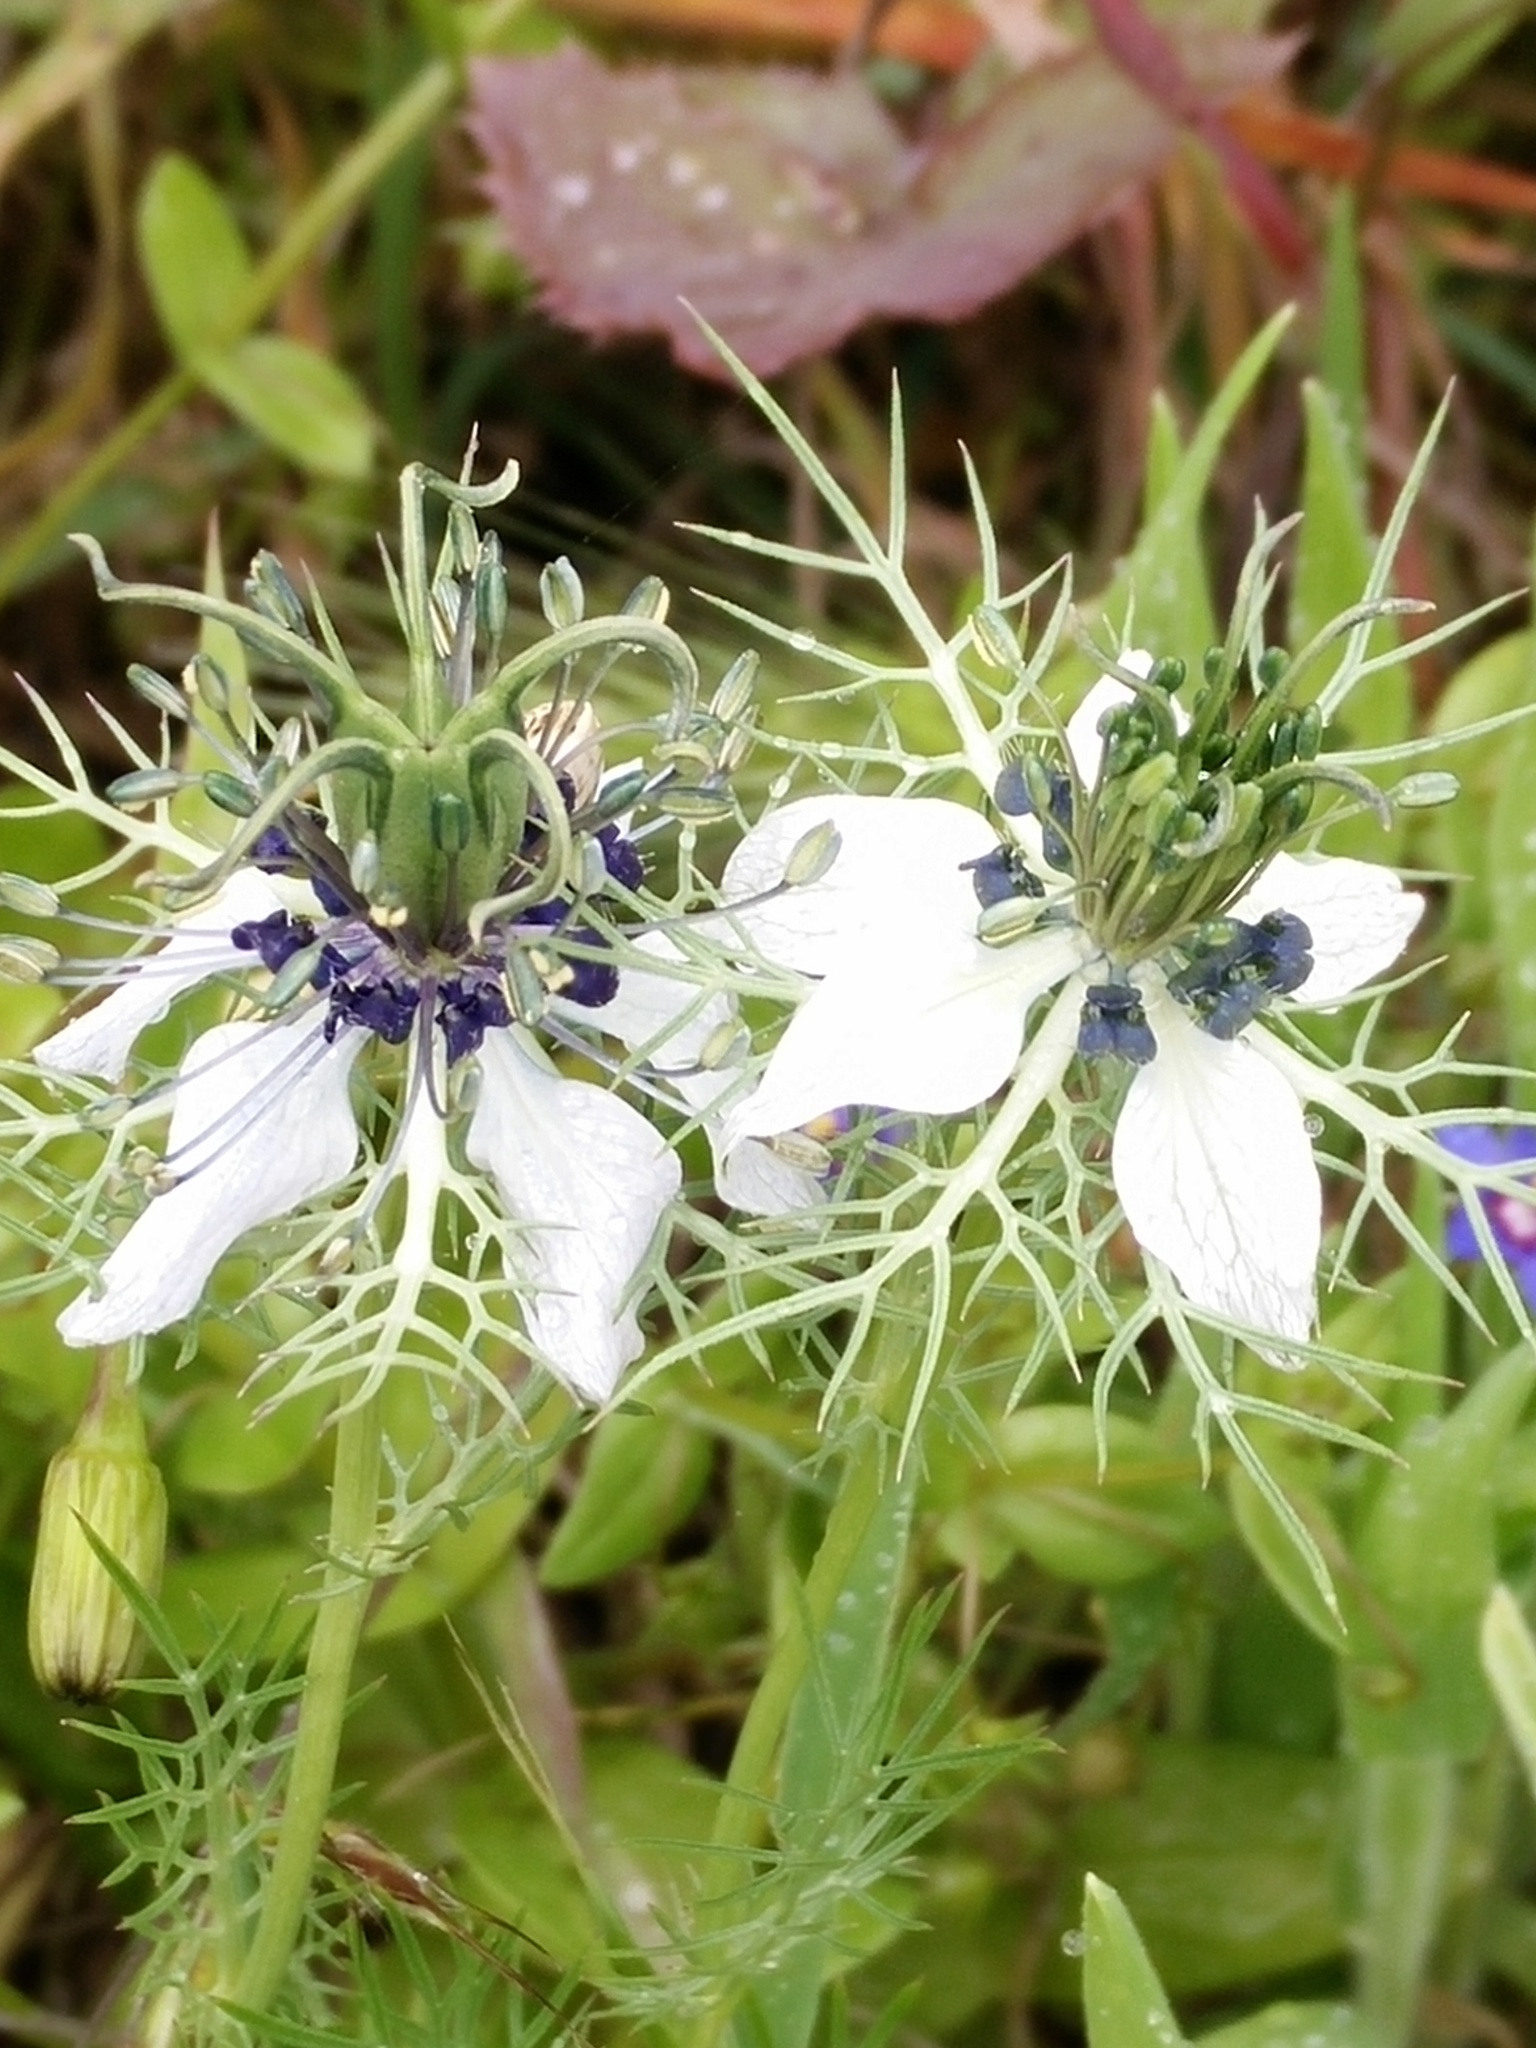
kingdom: Plantae
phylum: Tracheophyta
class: Magnoliopsida
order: Ranunculales
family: Ranunculaceae
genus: Nigella
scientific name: Nigella damascena
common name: Love-in-a-mist
